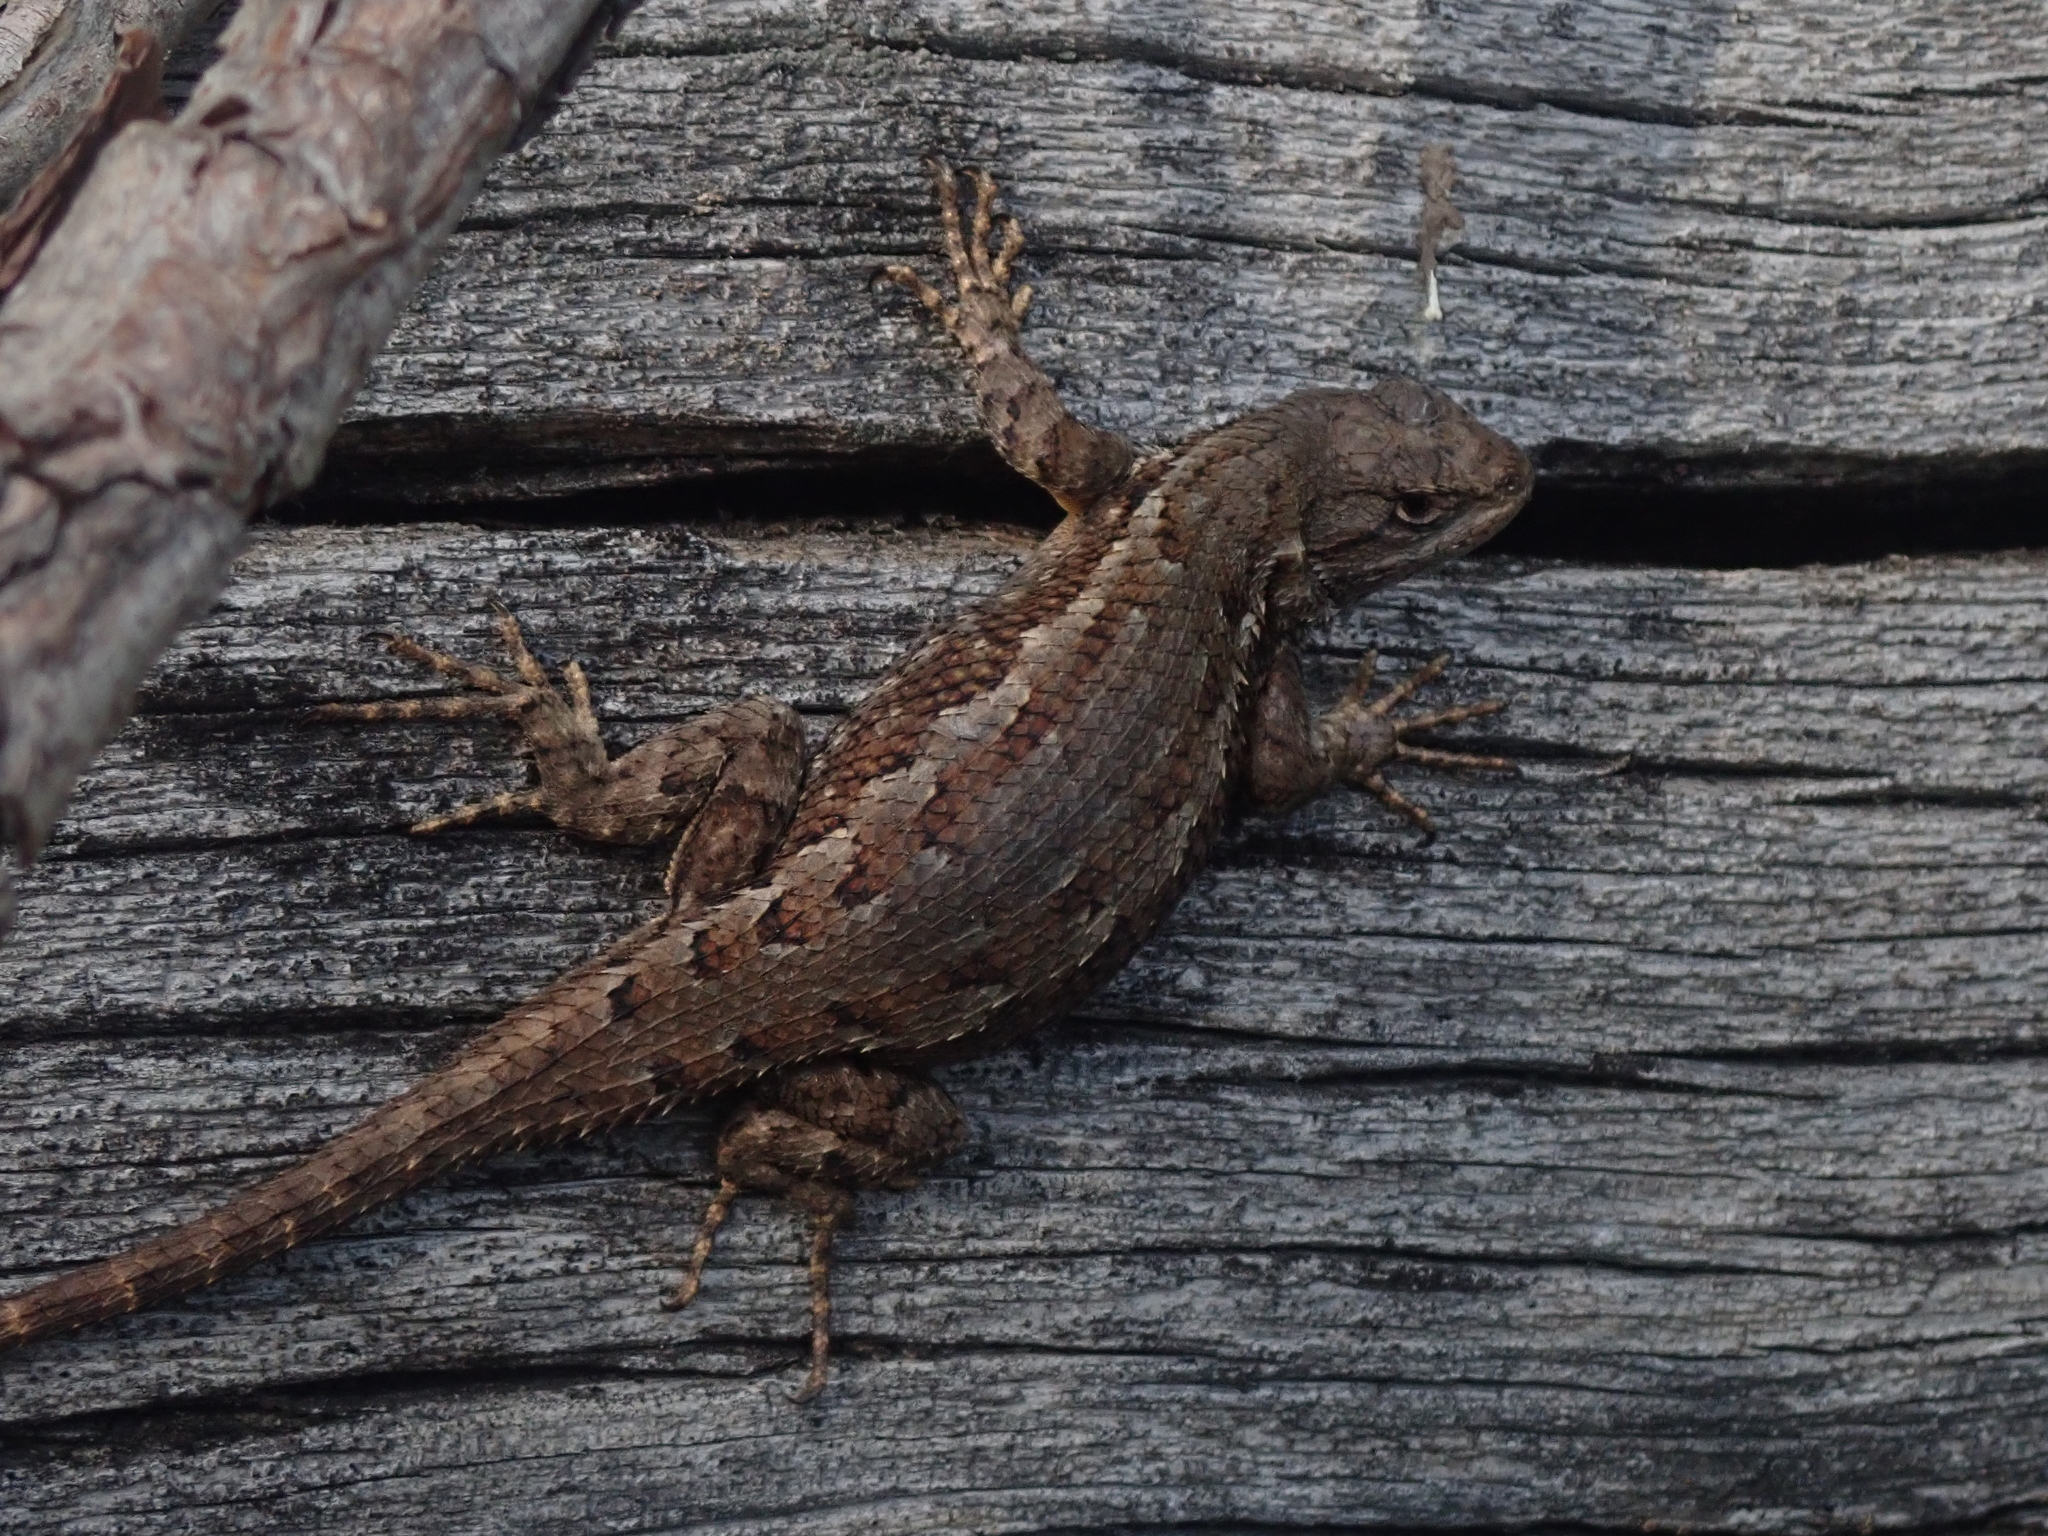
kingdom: Animalia
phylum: Chordata
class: Squamata
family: Phrynosomatidae
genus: Sceloporus
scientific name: Sceloporus occidentalis
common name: Western fence lizard
